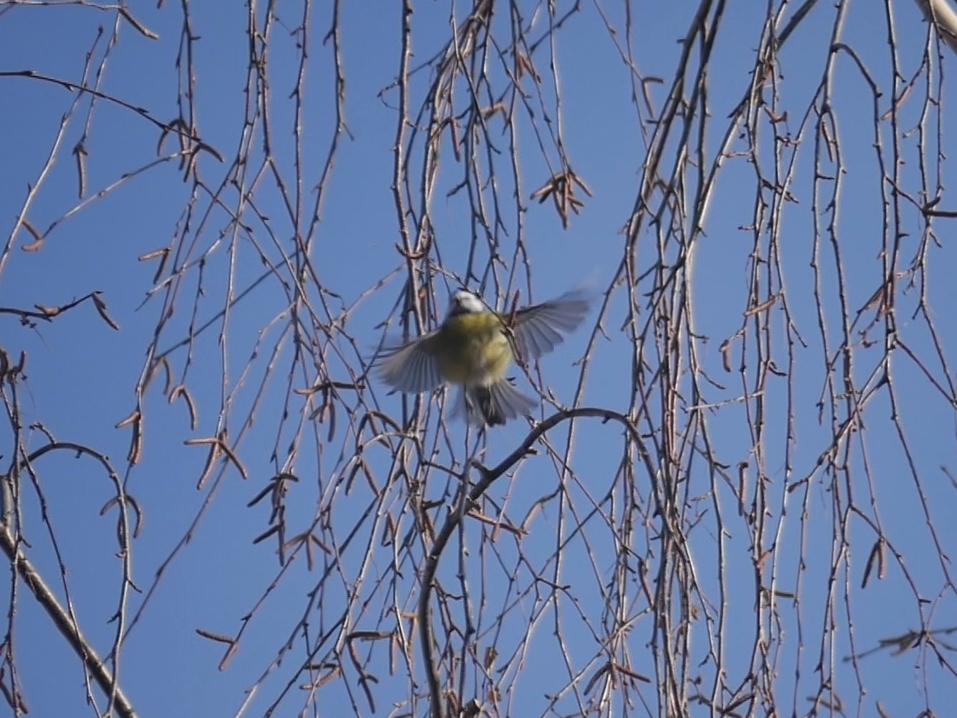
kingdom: Animalia
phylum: Chordata
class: Aves
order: Passeriformes
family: Paridae
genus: Cyanistes
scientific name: Cyanistes caeruleus
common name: Eurasian blue tit
